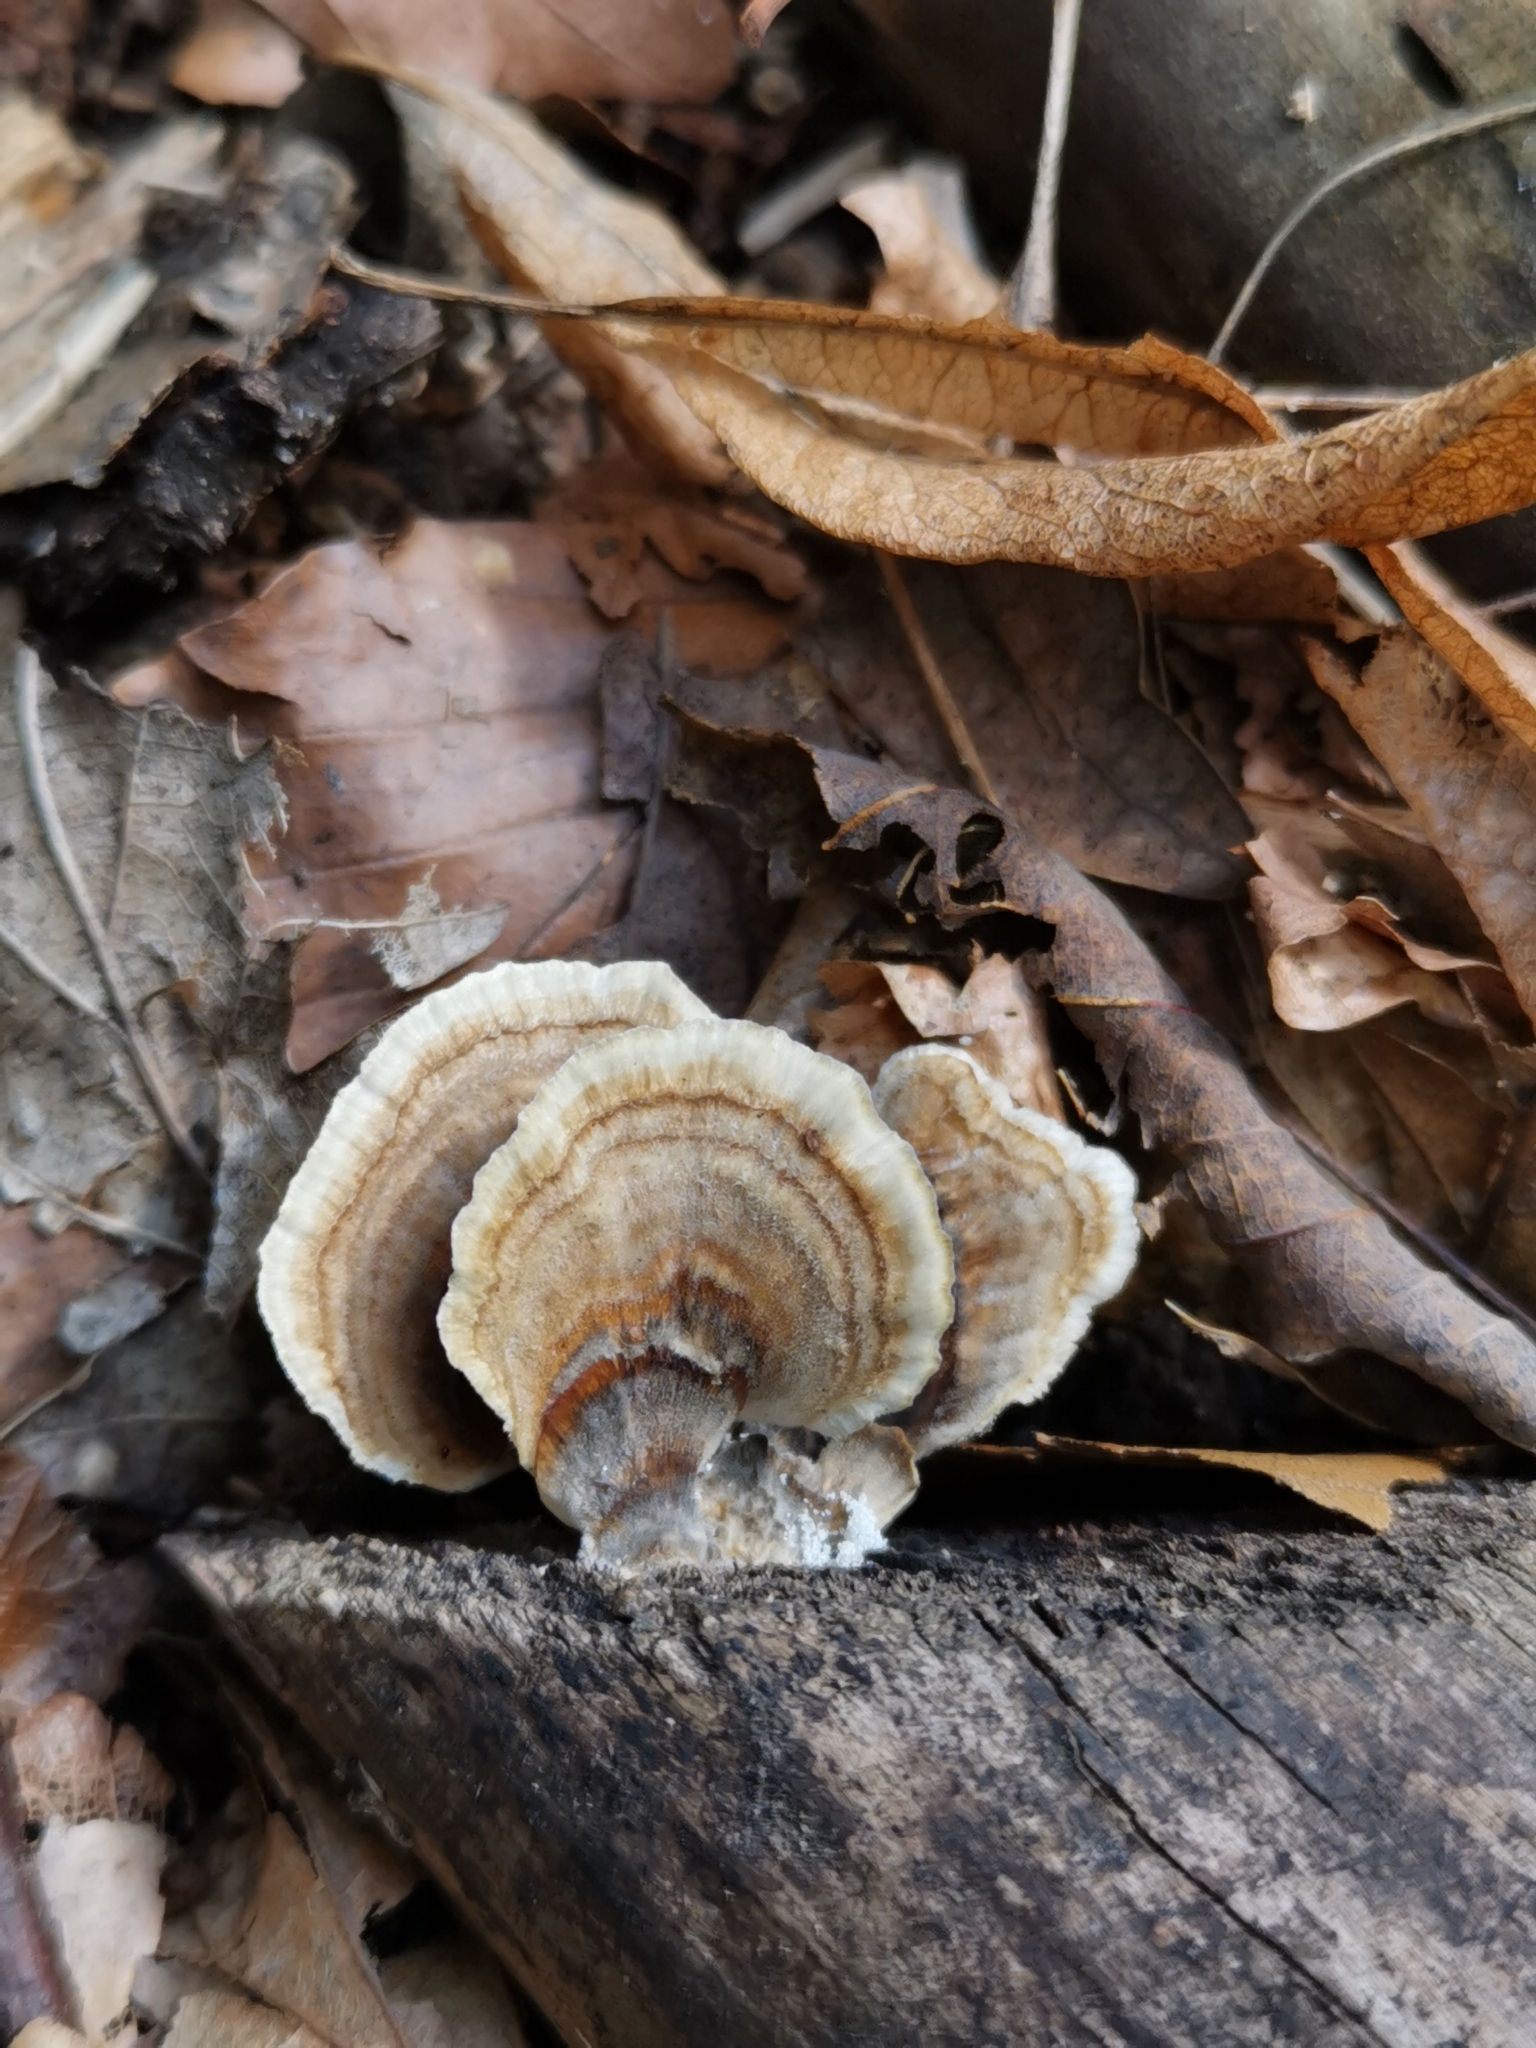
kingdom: Fungi
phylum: Basidiomycota
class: Agaricomycetes
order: Polyporales
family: Polyporaceae
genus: Trametes
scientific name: Trametes versicolor
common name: Turkeytail
